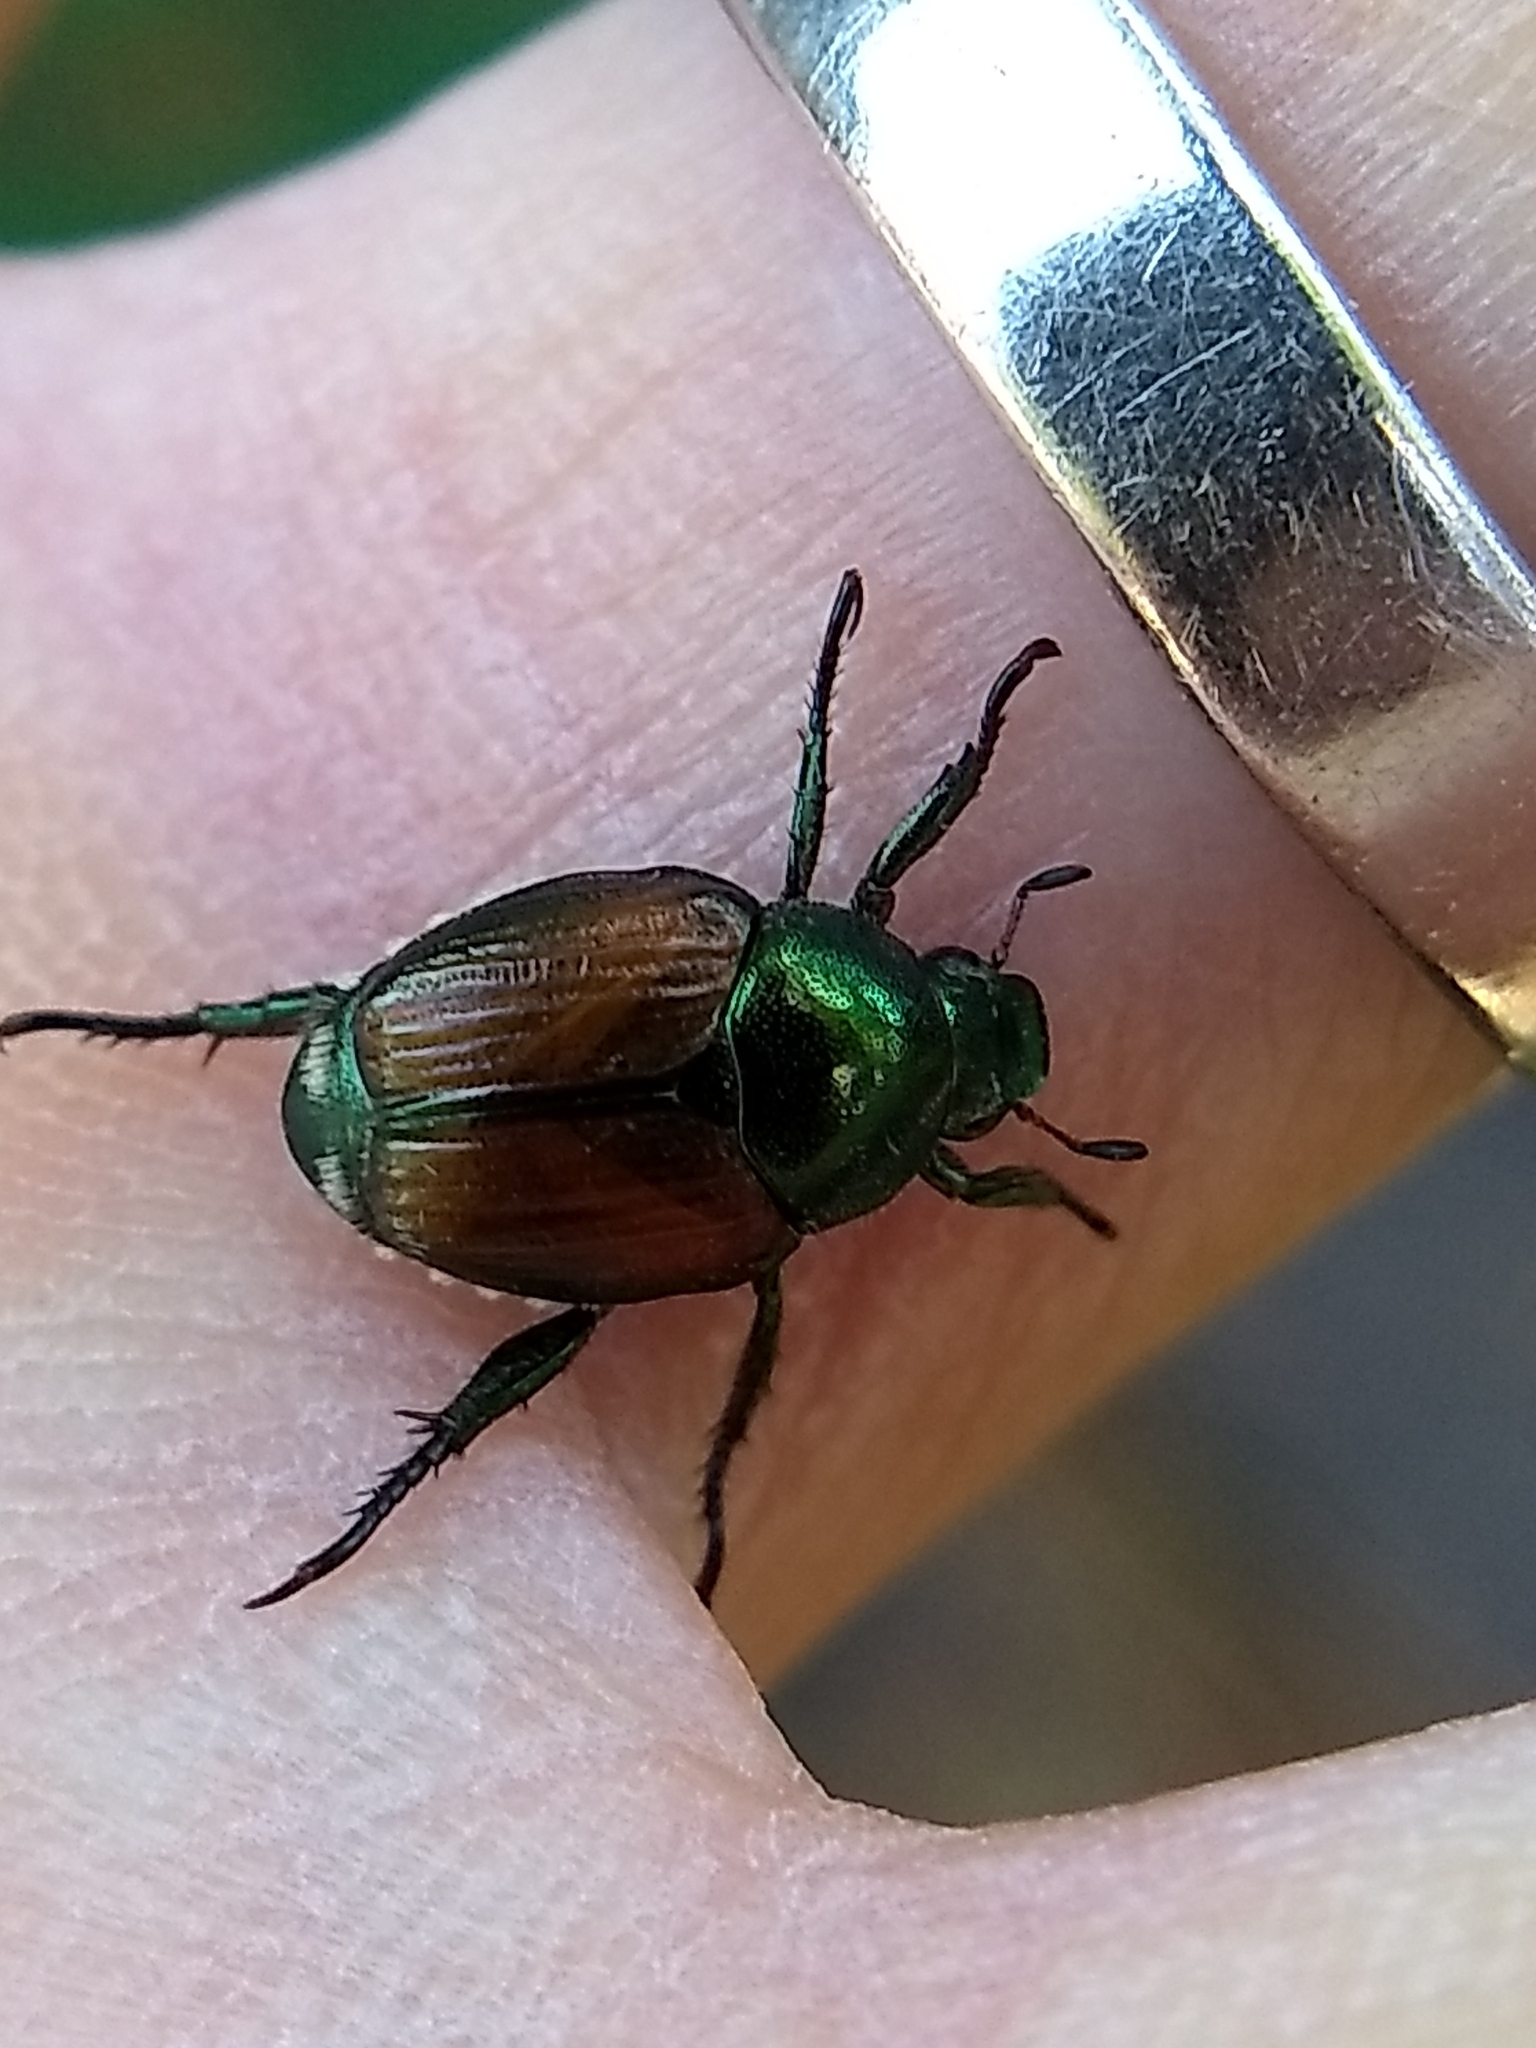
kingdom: Animalia
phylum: Arthropoda
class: Insecta
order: Coleoptera
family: Scarabaeidae
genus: Popillia
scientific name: Popillia japonica
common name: Japanese beetle
